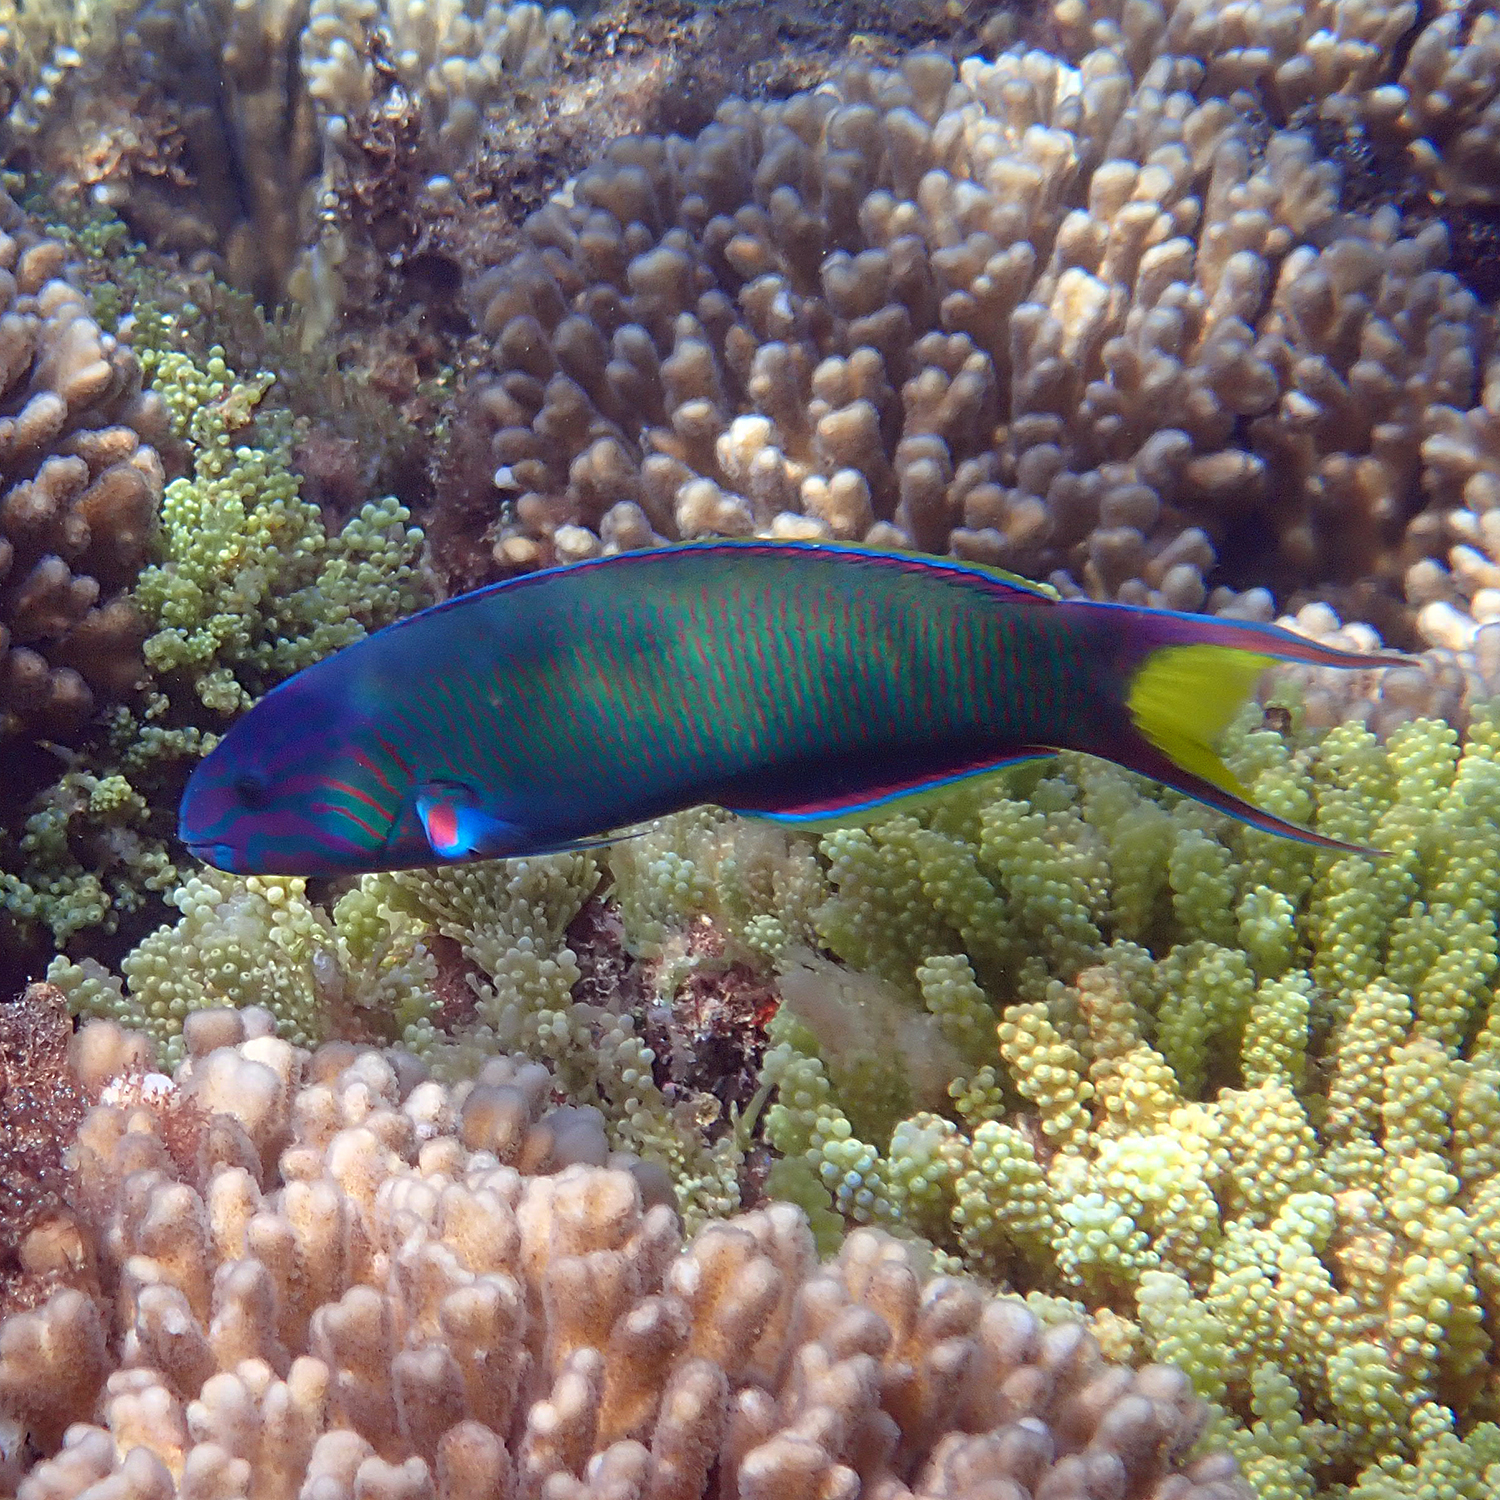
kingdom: Animalia
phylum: Chordata
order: Perciformes
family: Labridae
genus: Thalassoma
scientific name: Thalassoma lunare
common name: Blue wrasse
